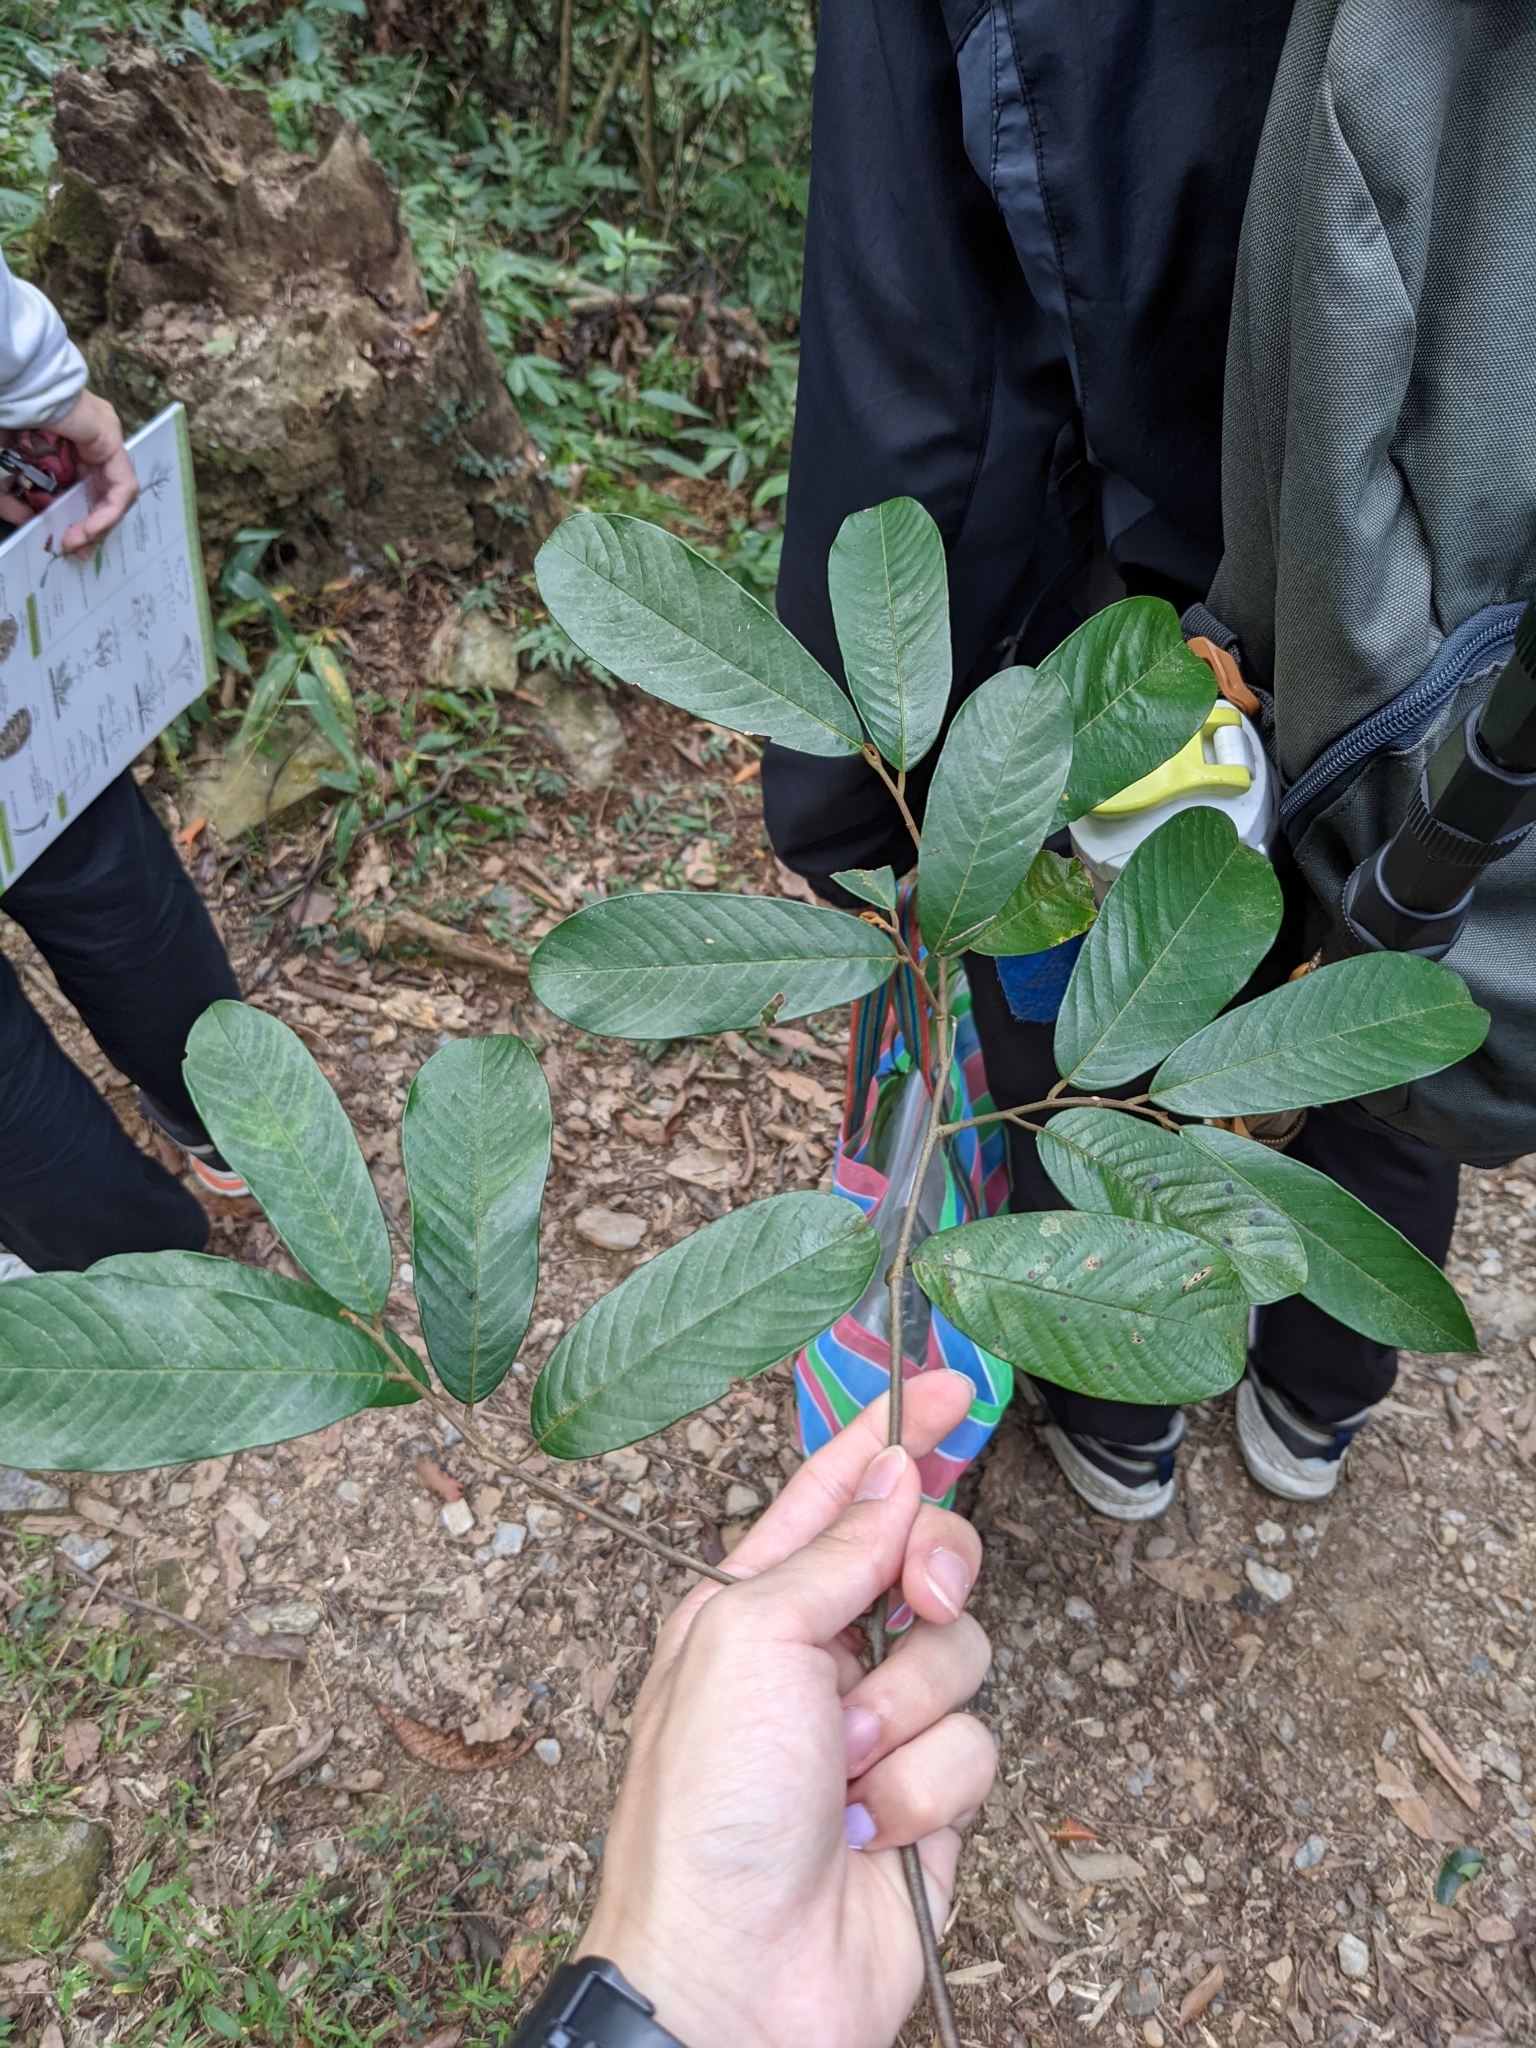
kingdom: Plantae
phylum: Tracheophyta
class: Magnoliopsida
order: Magnoliales
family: Annonaceae
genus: Fissistigma
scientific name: Fissistigma oldhamii
